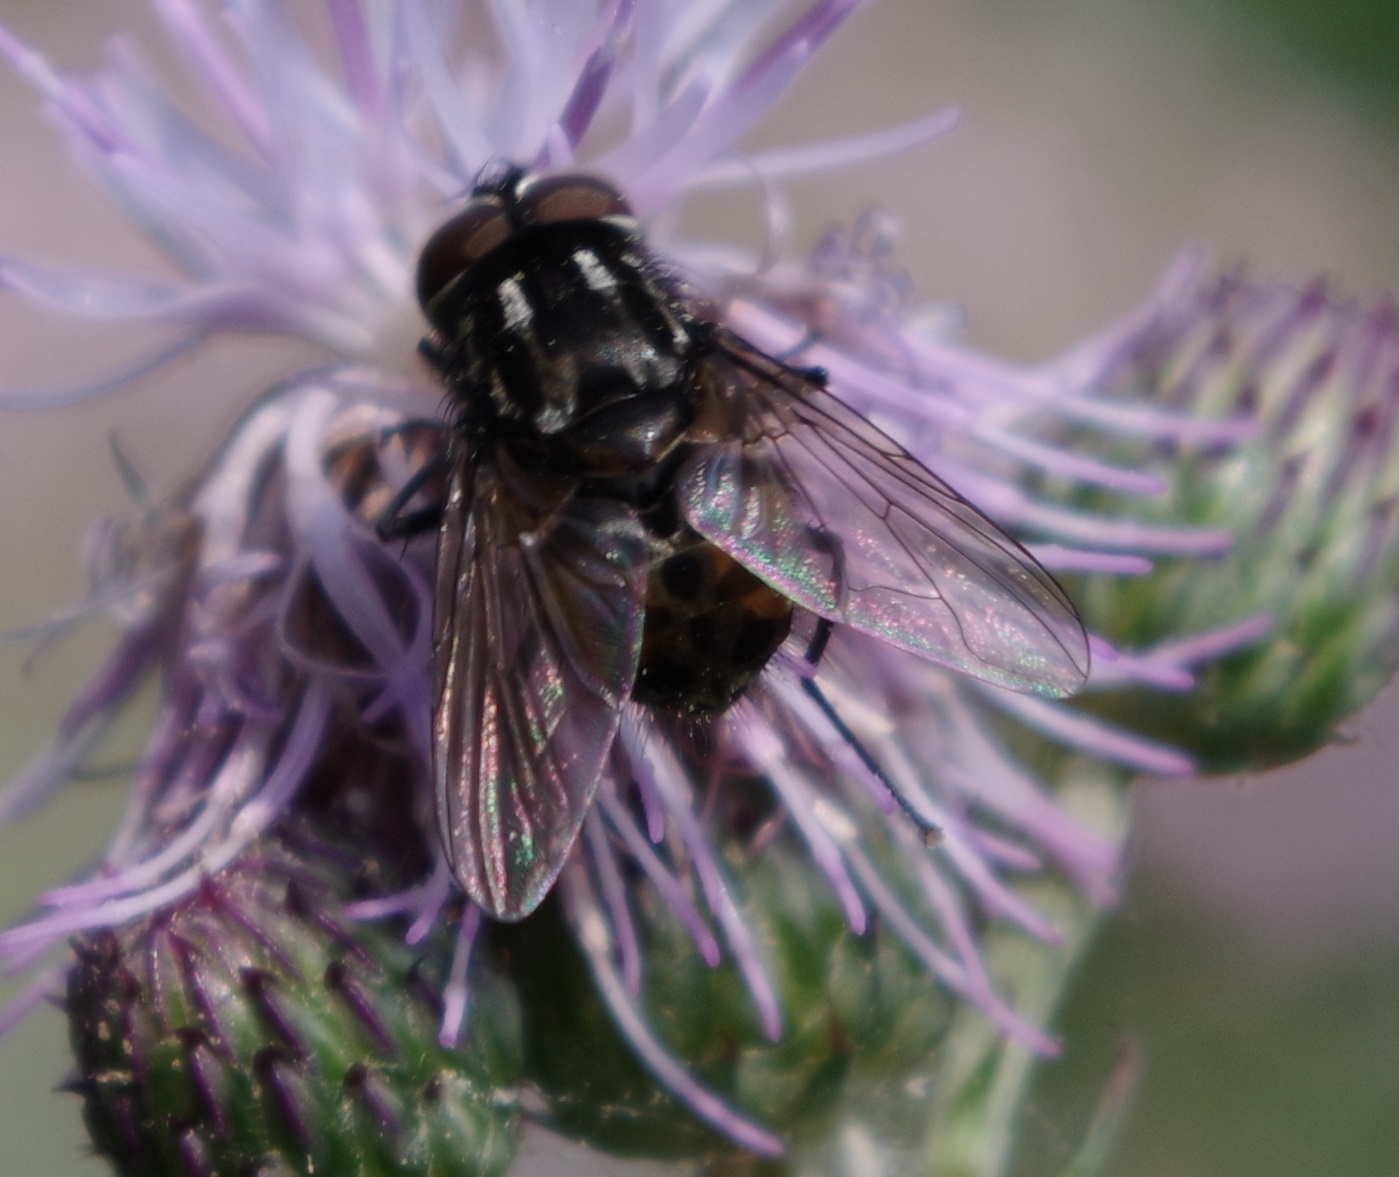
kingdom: Animalia
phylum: Arthropoda
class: Insecta
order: Diptera
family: Muscidae
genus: Graphomya
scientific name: Graphomya maculata
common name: Muscid fly
